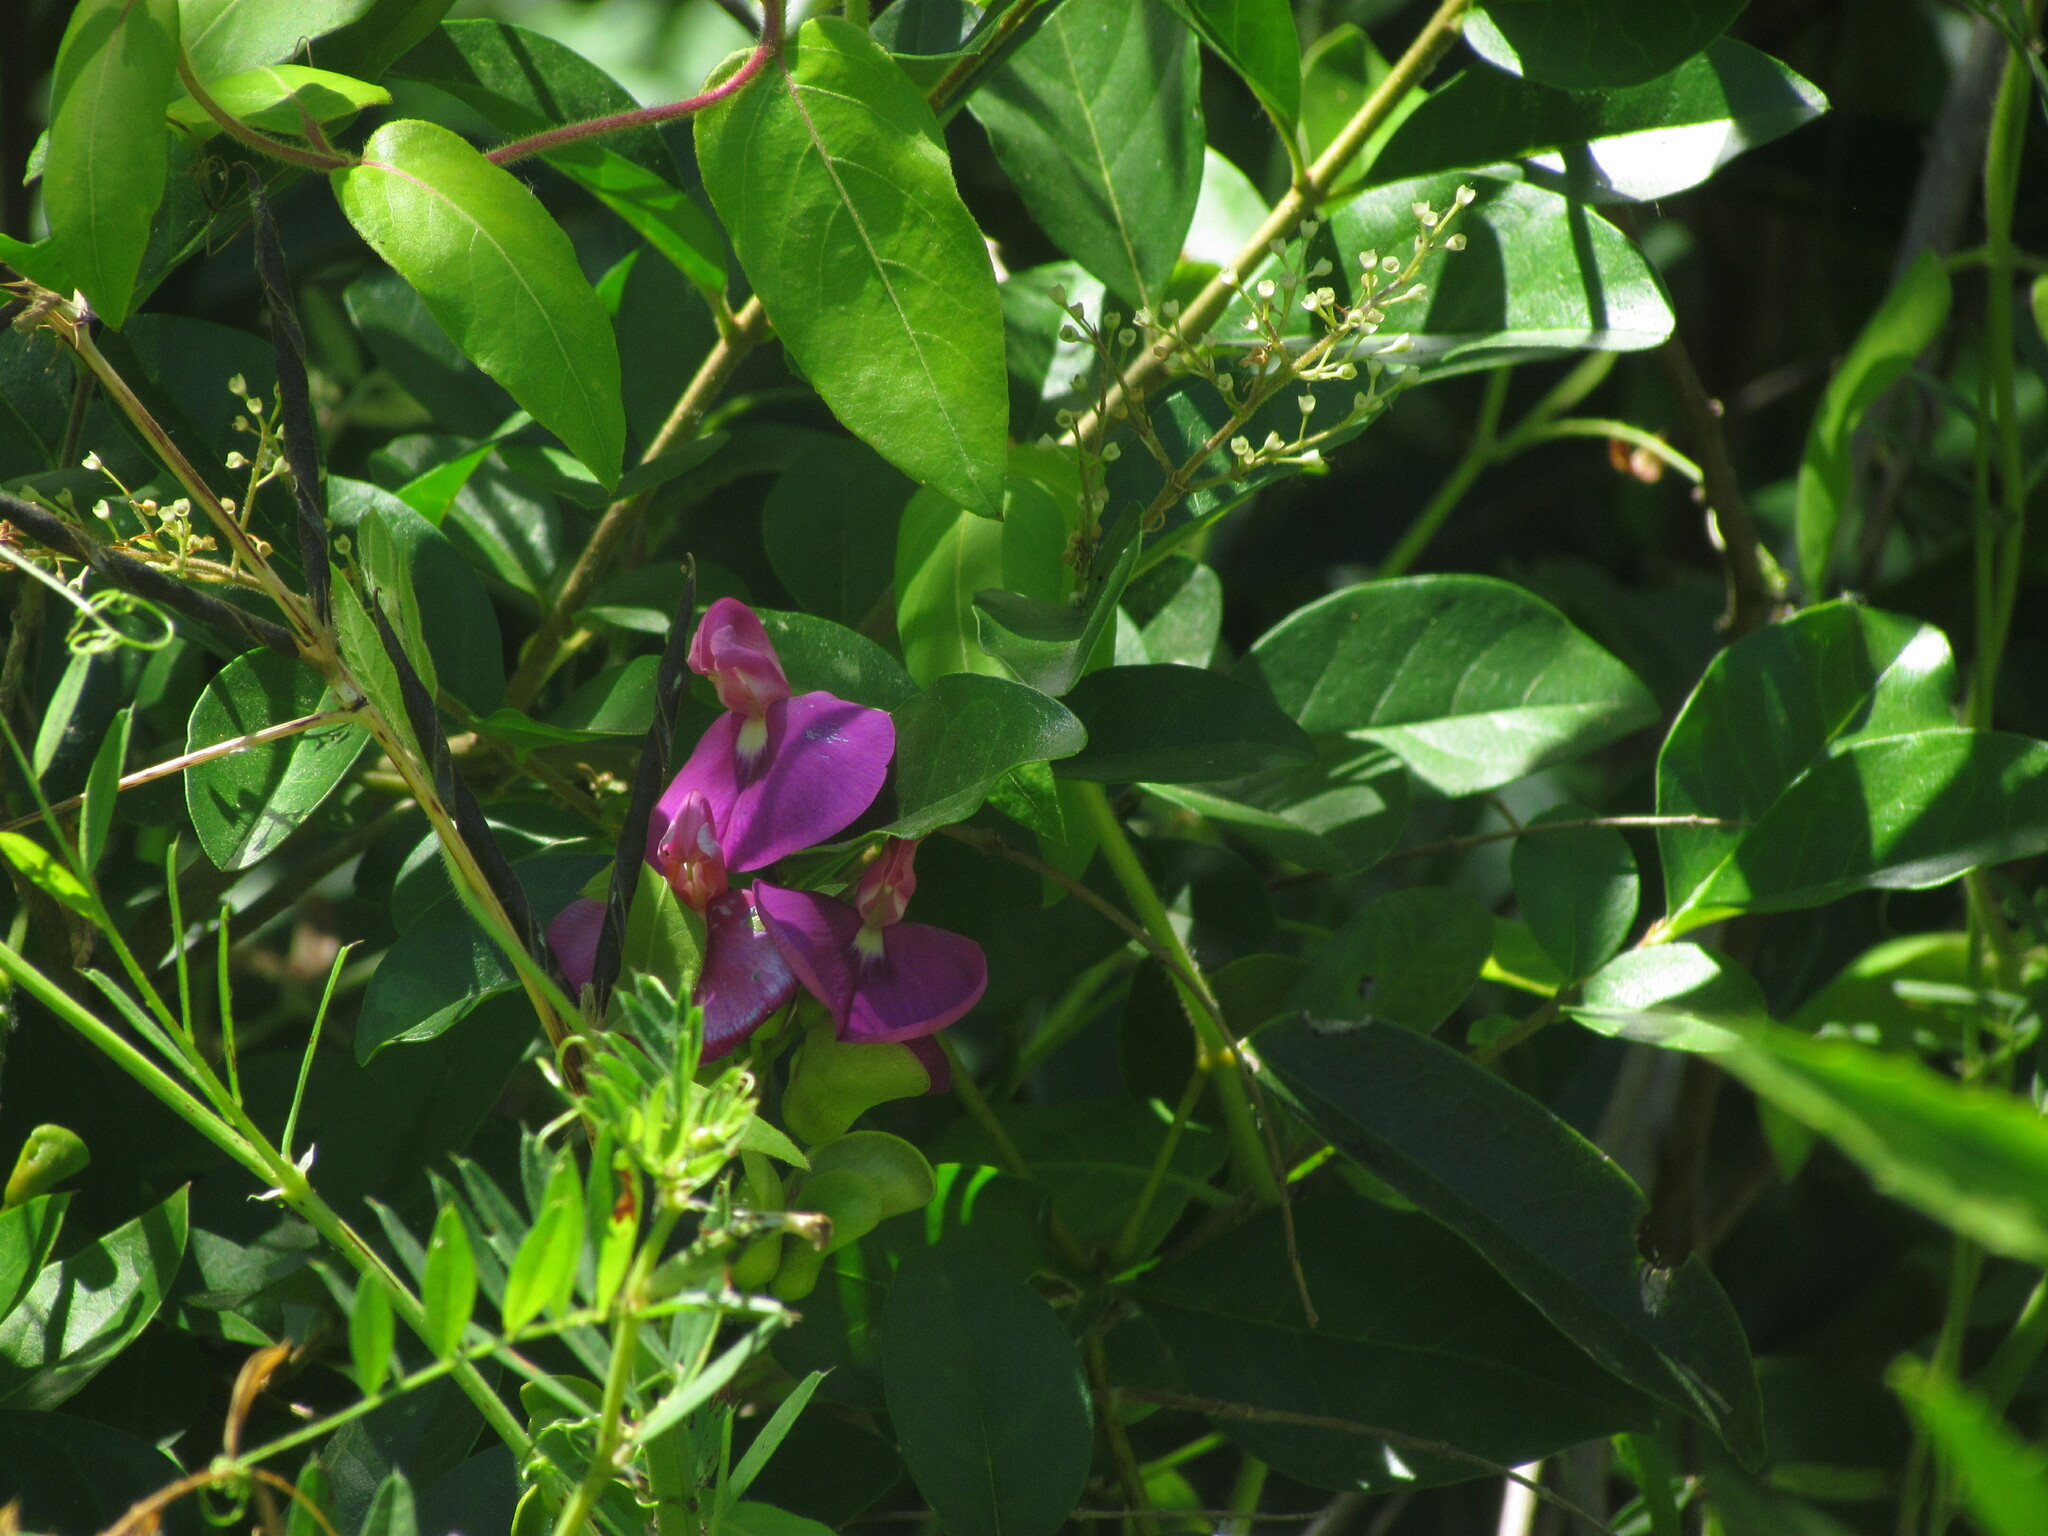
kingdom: Plantae
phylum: Tracheophyta
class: Magnoliopsida
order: Fabales
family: Fabaceae
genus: Canavalia
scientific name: Canavalia bonariensis
